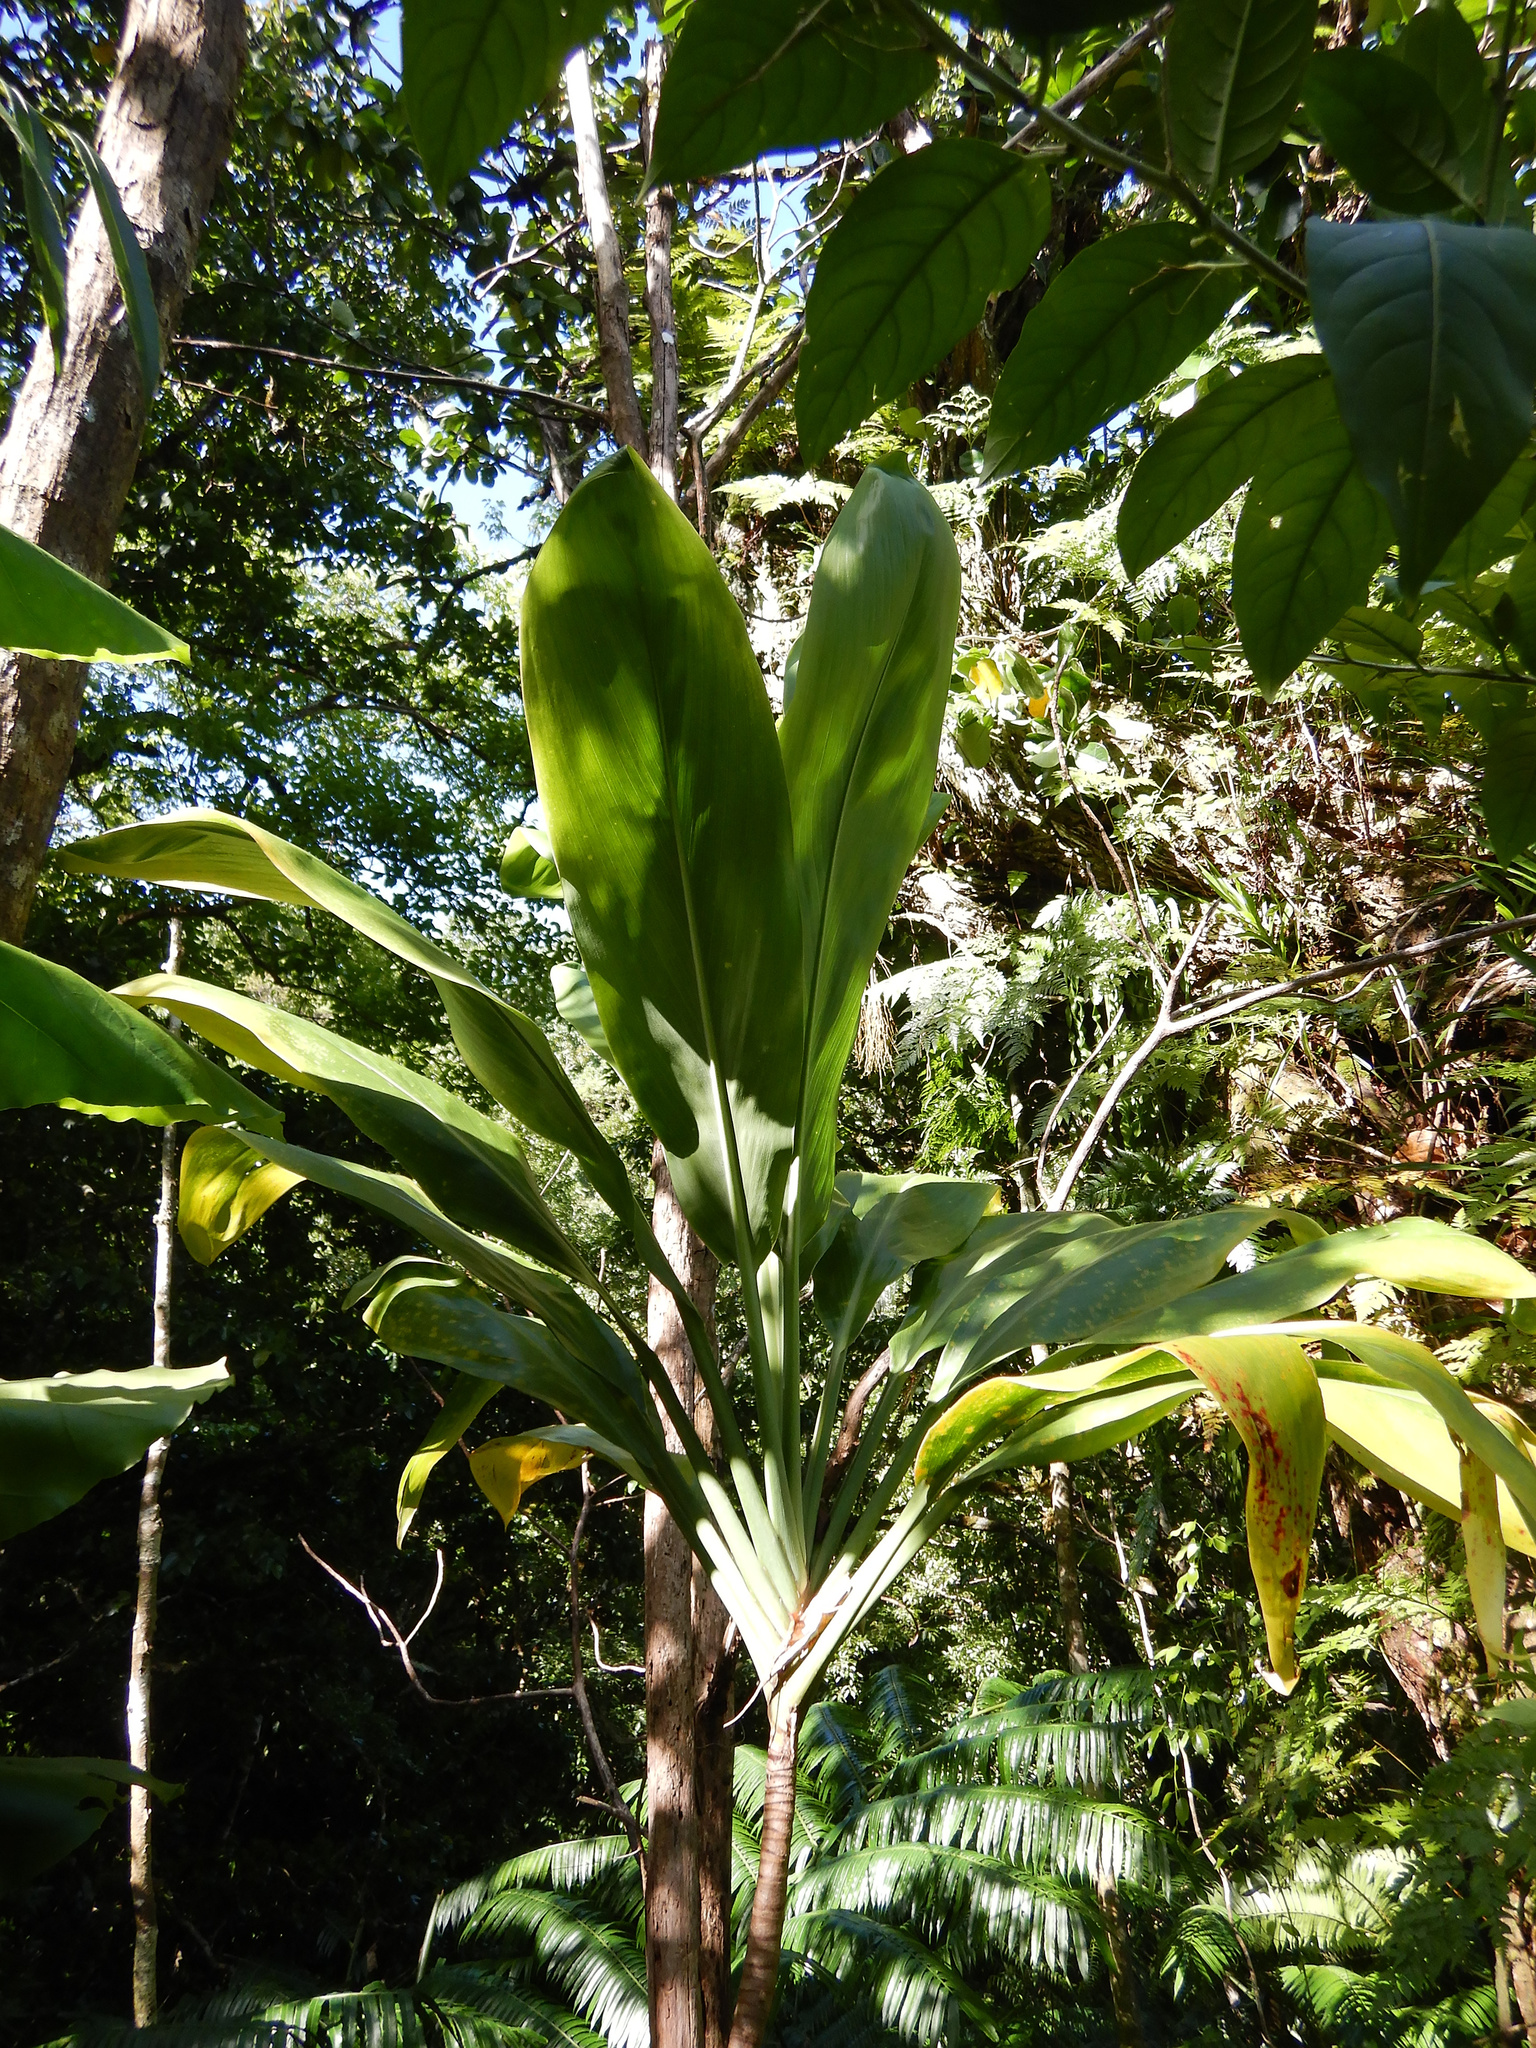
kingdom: Plantae
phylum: Tracheophyta
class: Liliopsida
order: Asparagales
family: Asparagaceae
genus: Cordyline
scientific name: Cordyline fruticosa
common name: Good-luck-plant
